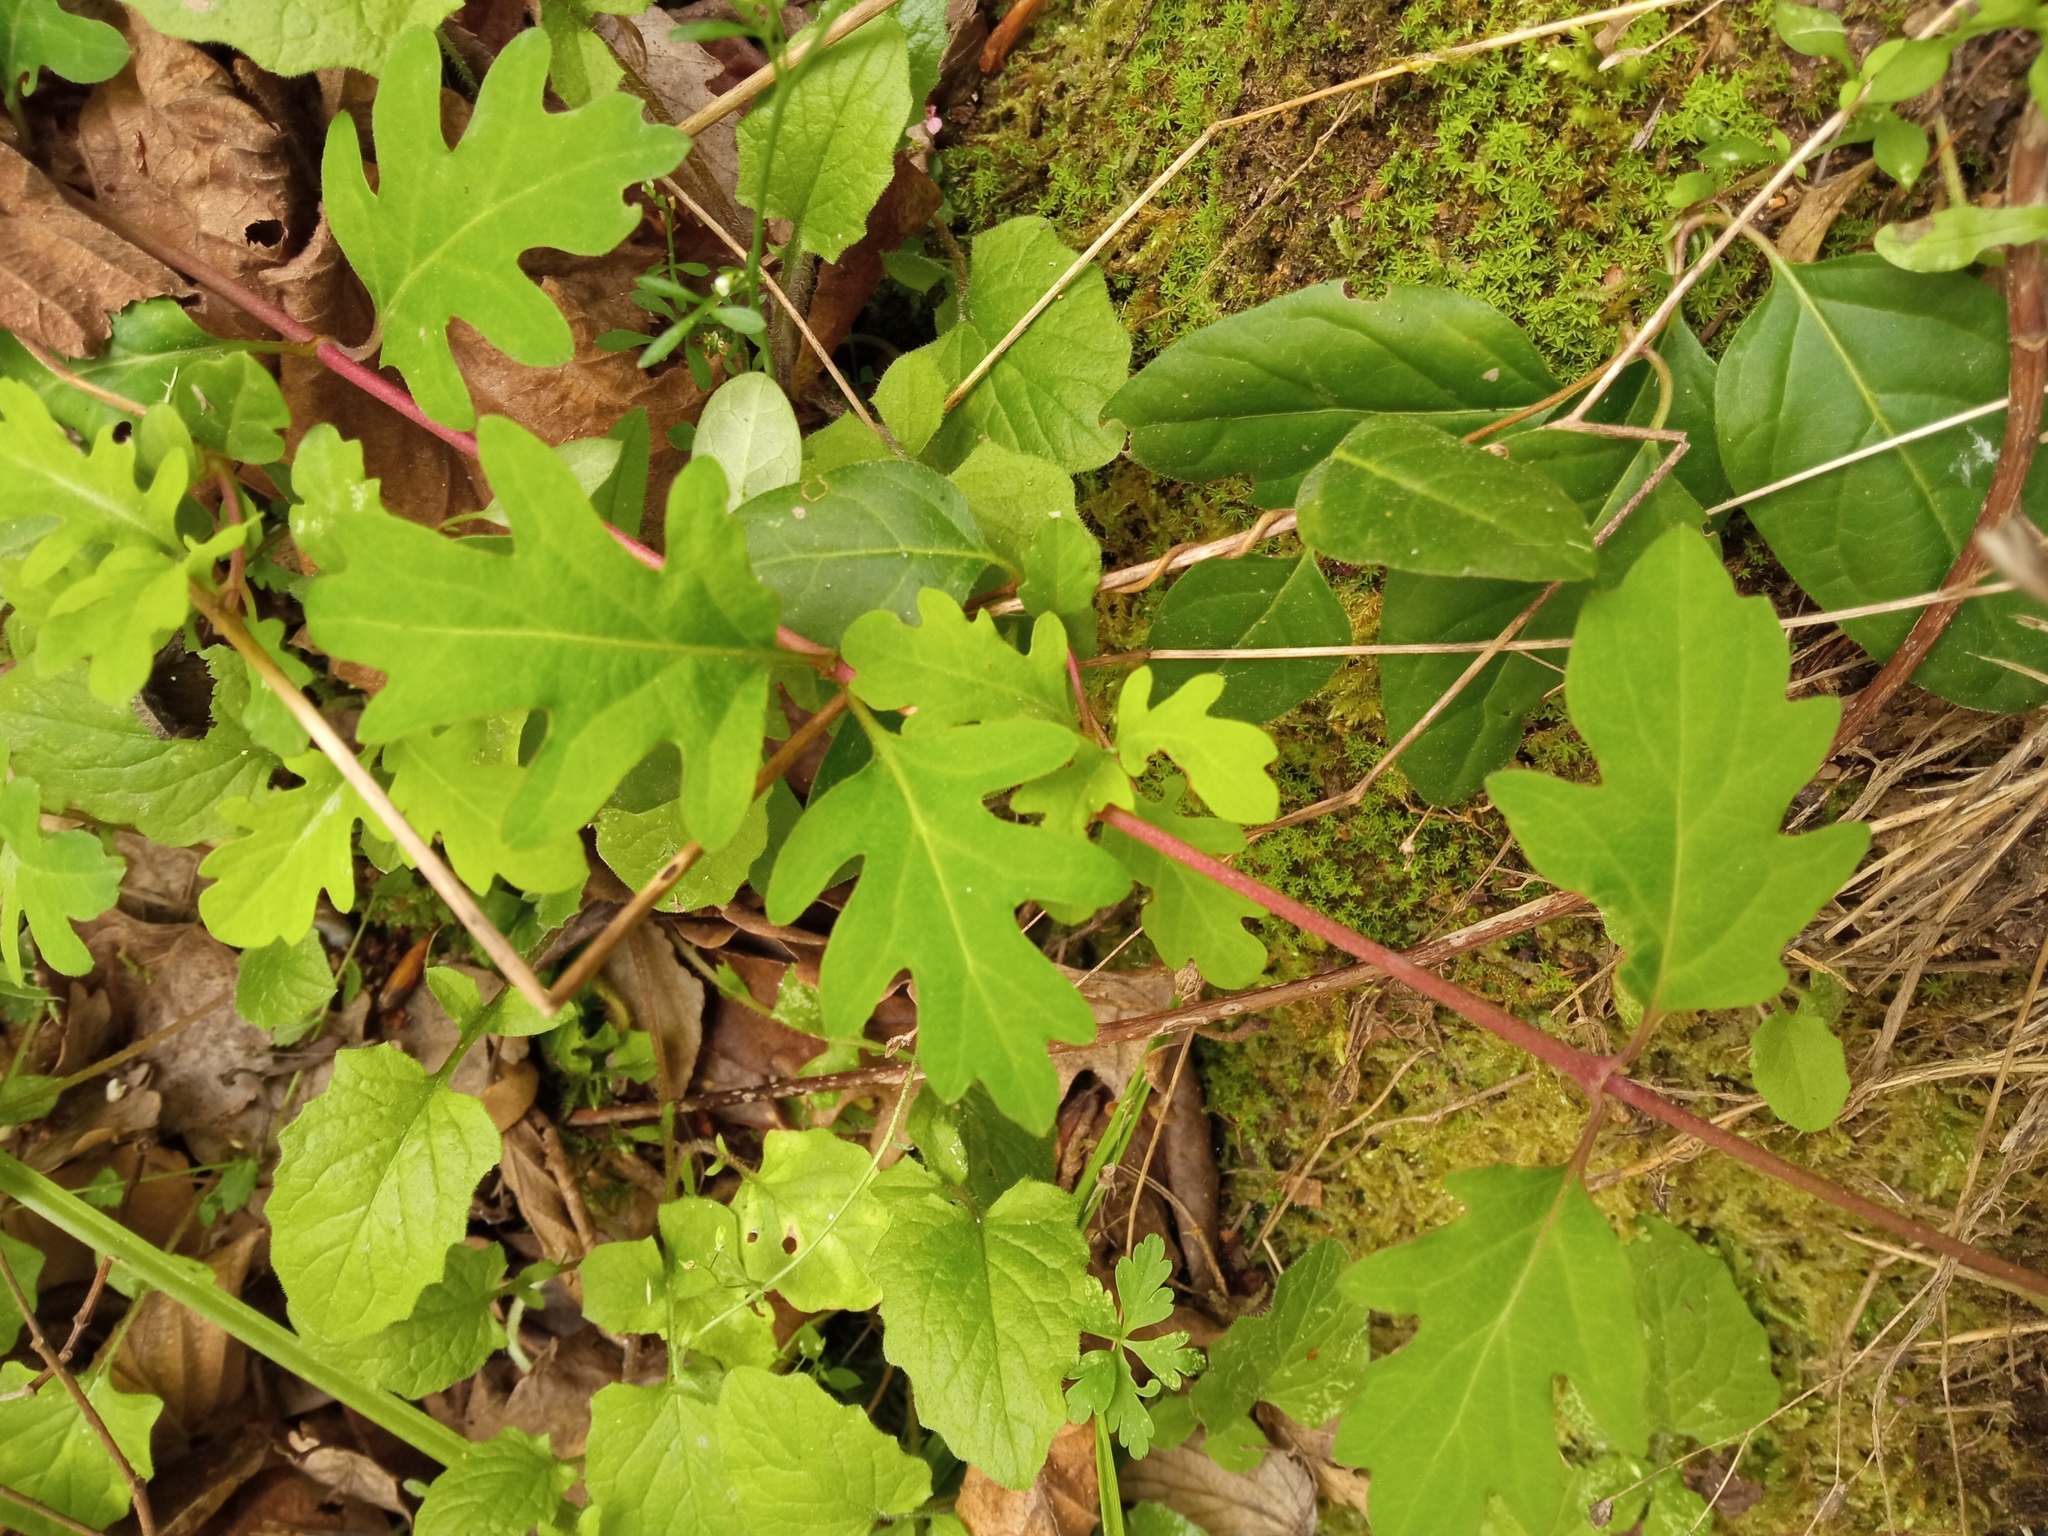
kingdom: Plantae
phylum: Tracheophyta
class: Magnoliopsida
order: Dipsacales
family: Caprifoliaceae
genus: Lonicera
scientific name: Lonicera japonica
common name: Japanese honeysuckle
